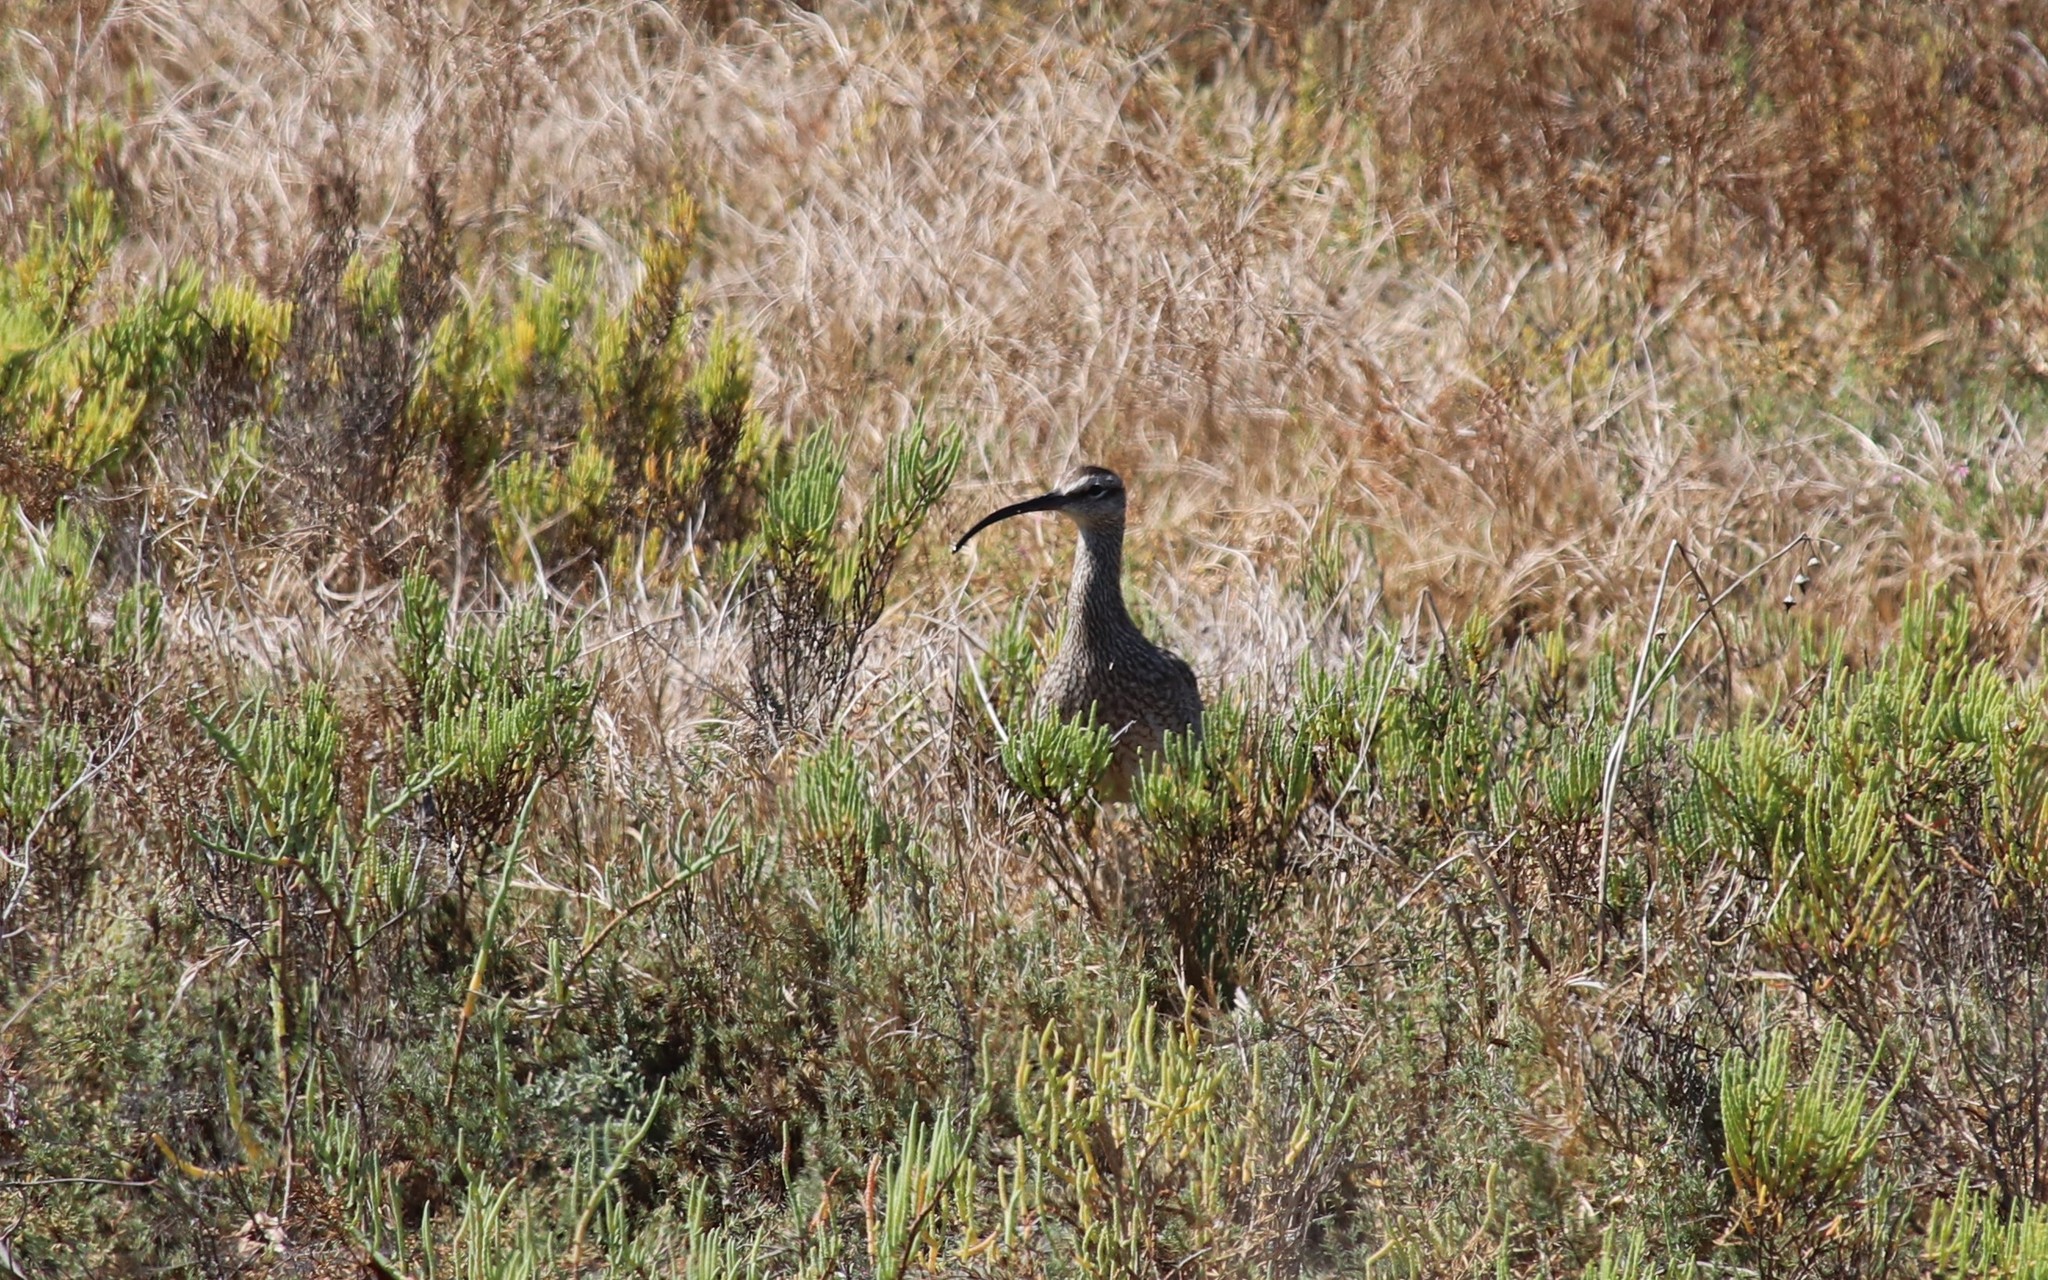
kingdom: Animalia
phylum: Chordata
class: Aves
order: Charadriiformes
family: Scolopacidae
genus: Numenius
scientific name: Numenius phaeopus
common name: Whimbrel
